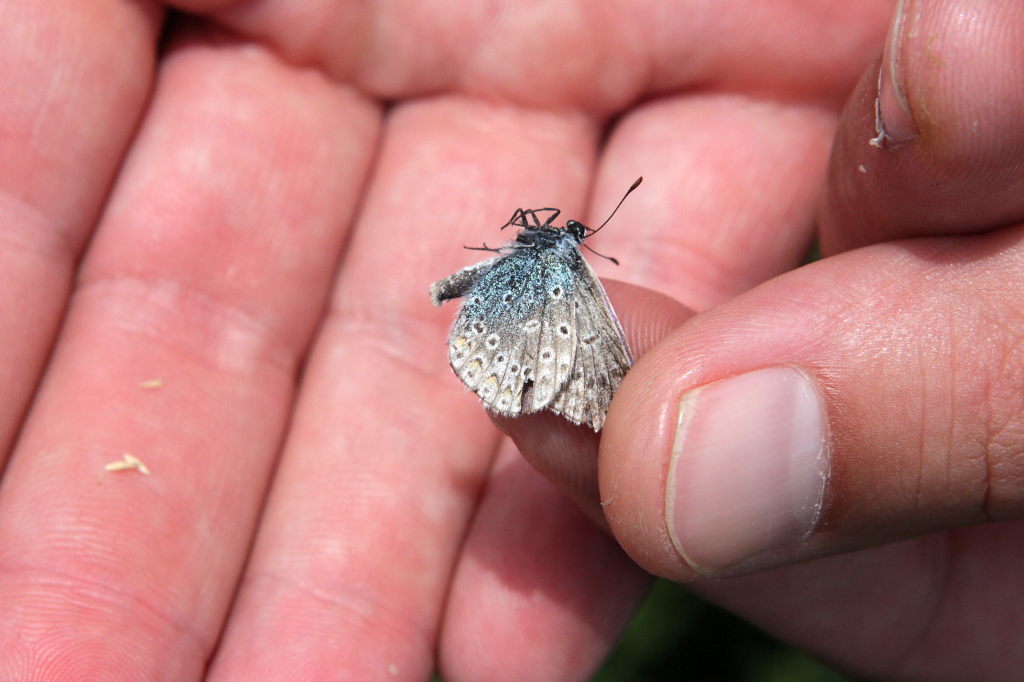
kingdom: Animalia
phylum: Arthropoda
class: Insecta
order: Lepidoptera
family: Lycaenidae
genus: Polyommatus
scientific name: Polyommatus icarus
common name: Common blue
